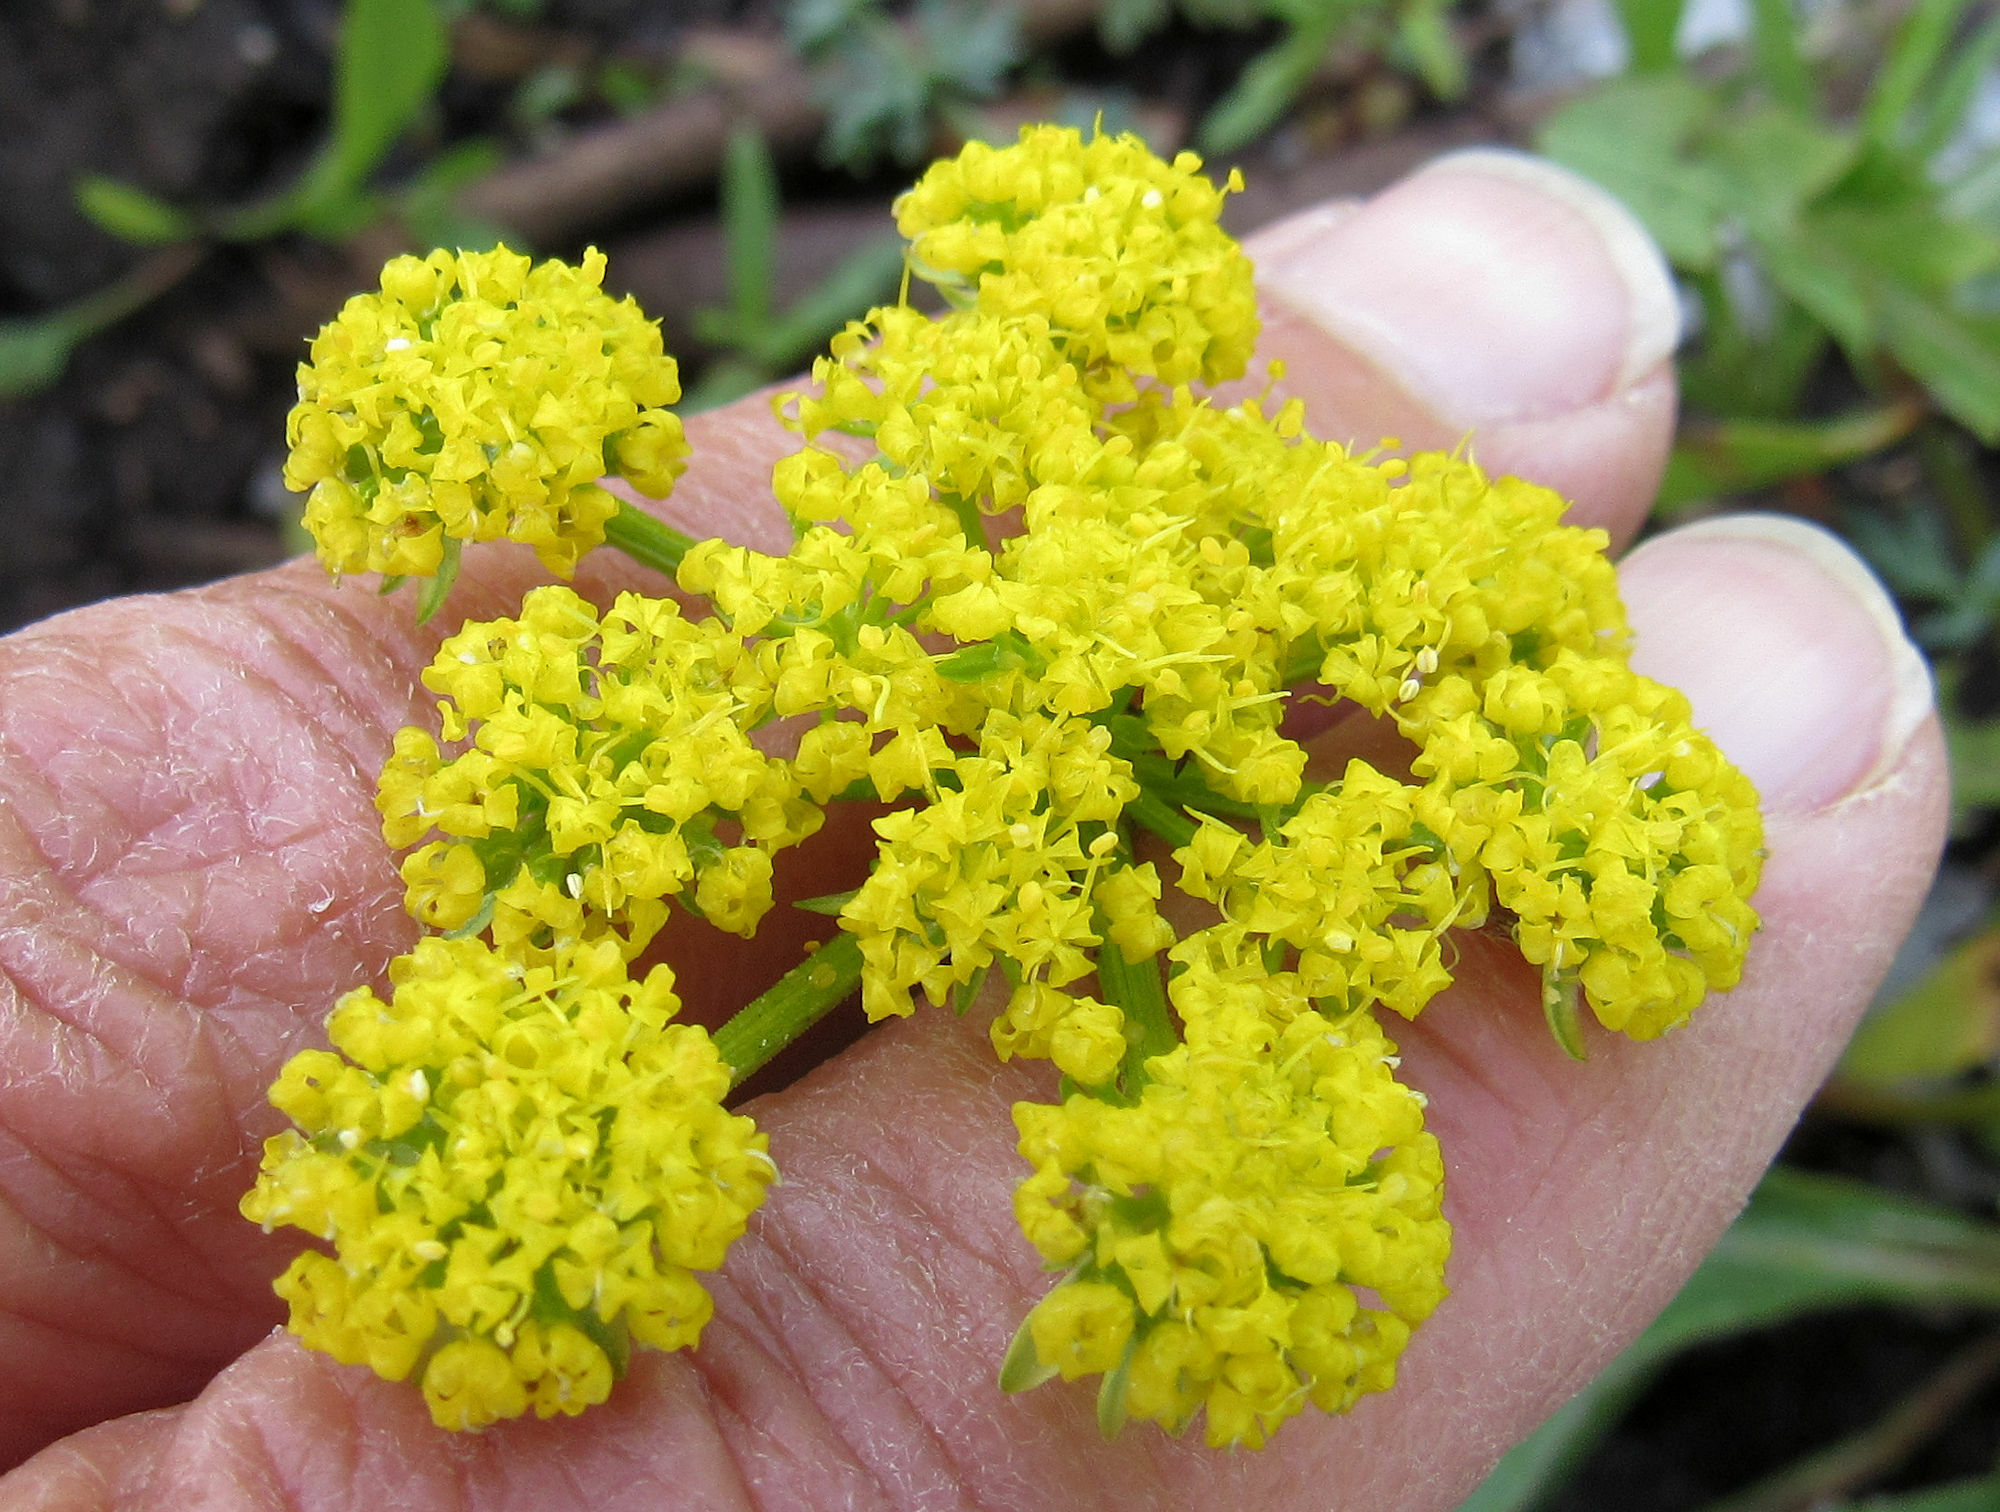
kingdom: Plantae
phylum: Tracheophyta
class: Magnoliopsida
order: Apiales
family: Apiaceae
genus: Lomatium
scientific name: Lomatium cous
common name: Biscuit-root
